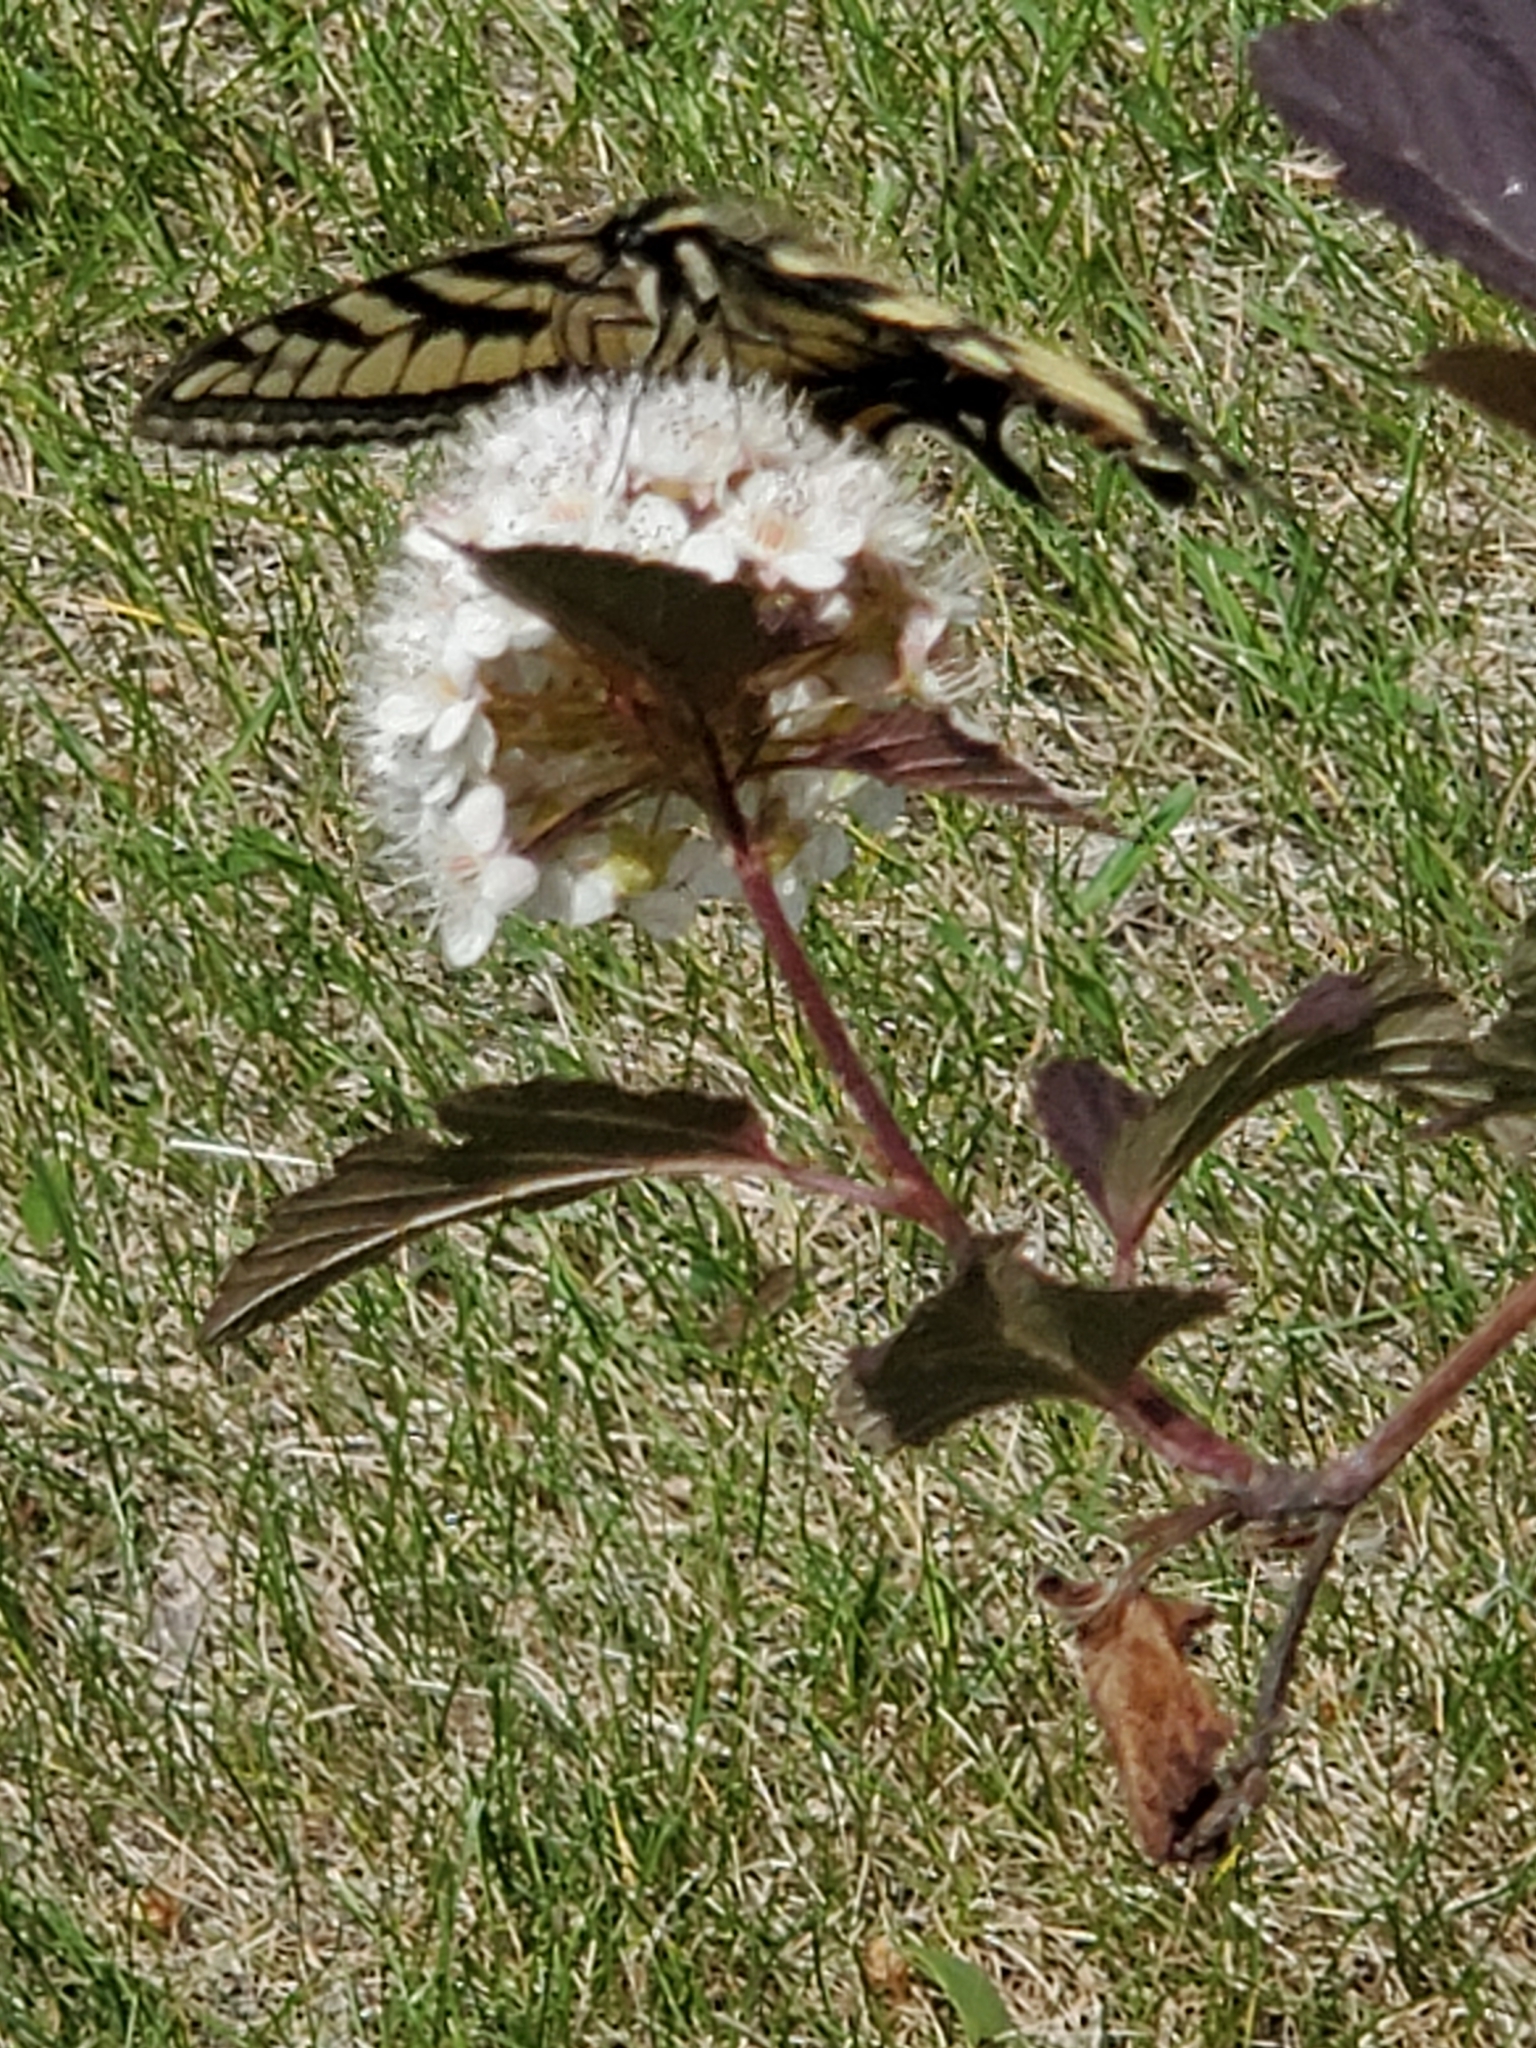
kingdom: Animalia
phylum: Arthropoda
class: Insecta
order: Lepidoptera
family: Papilionidae
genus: Papilio
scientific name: Papilio canadensis
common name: Canadian tiger swallowtail
